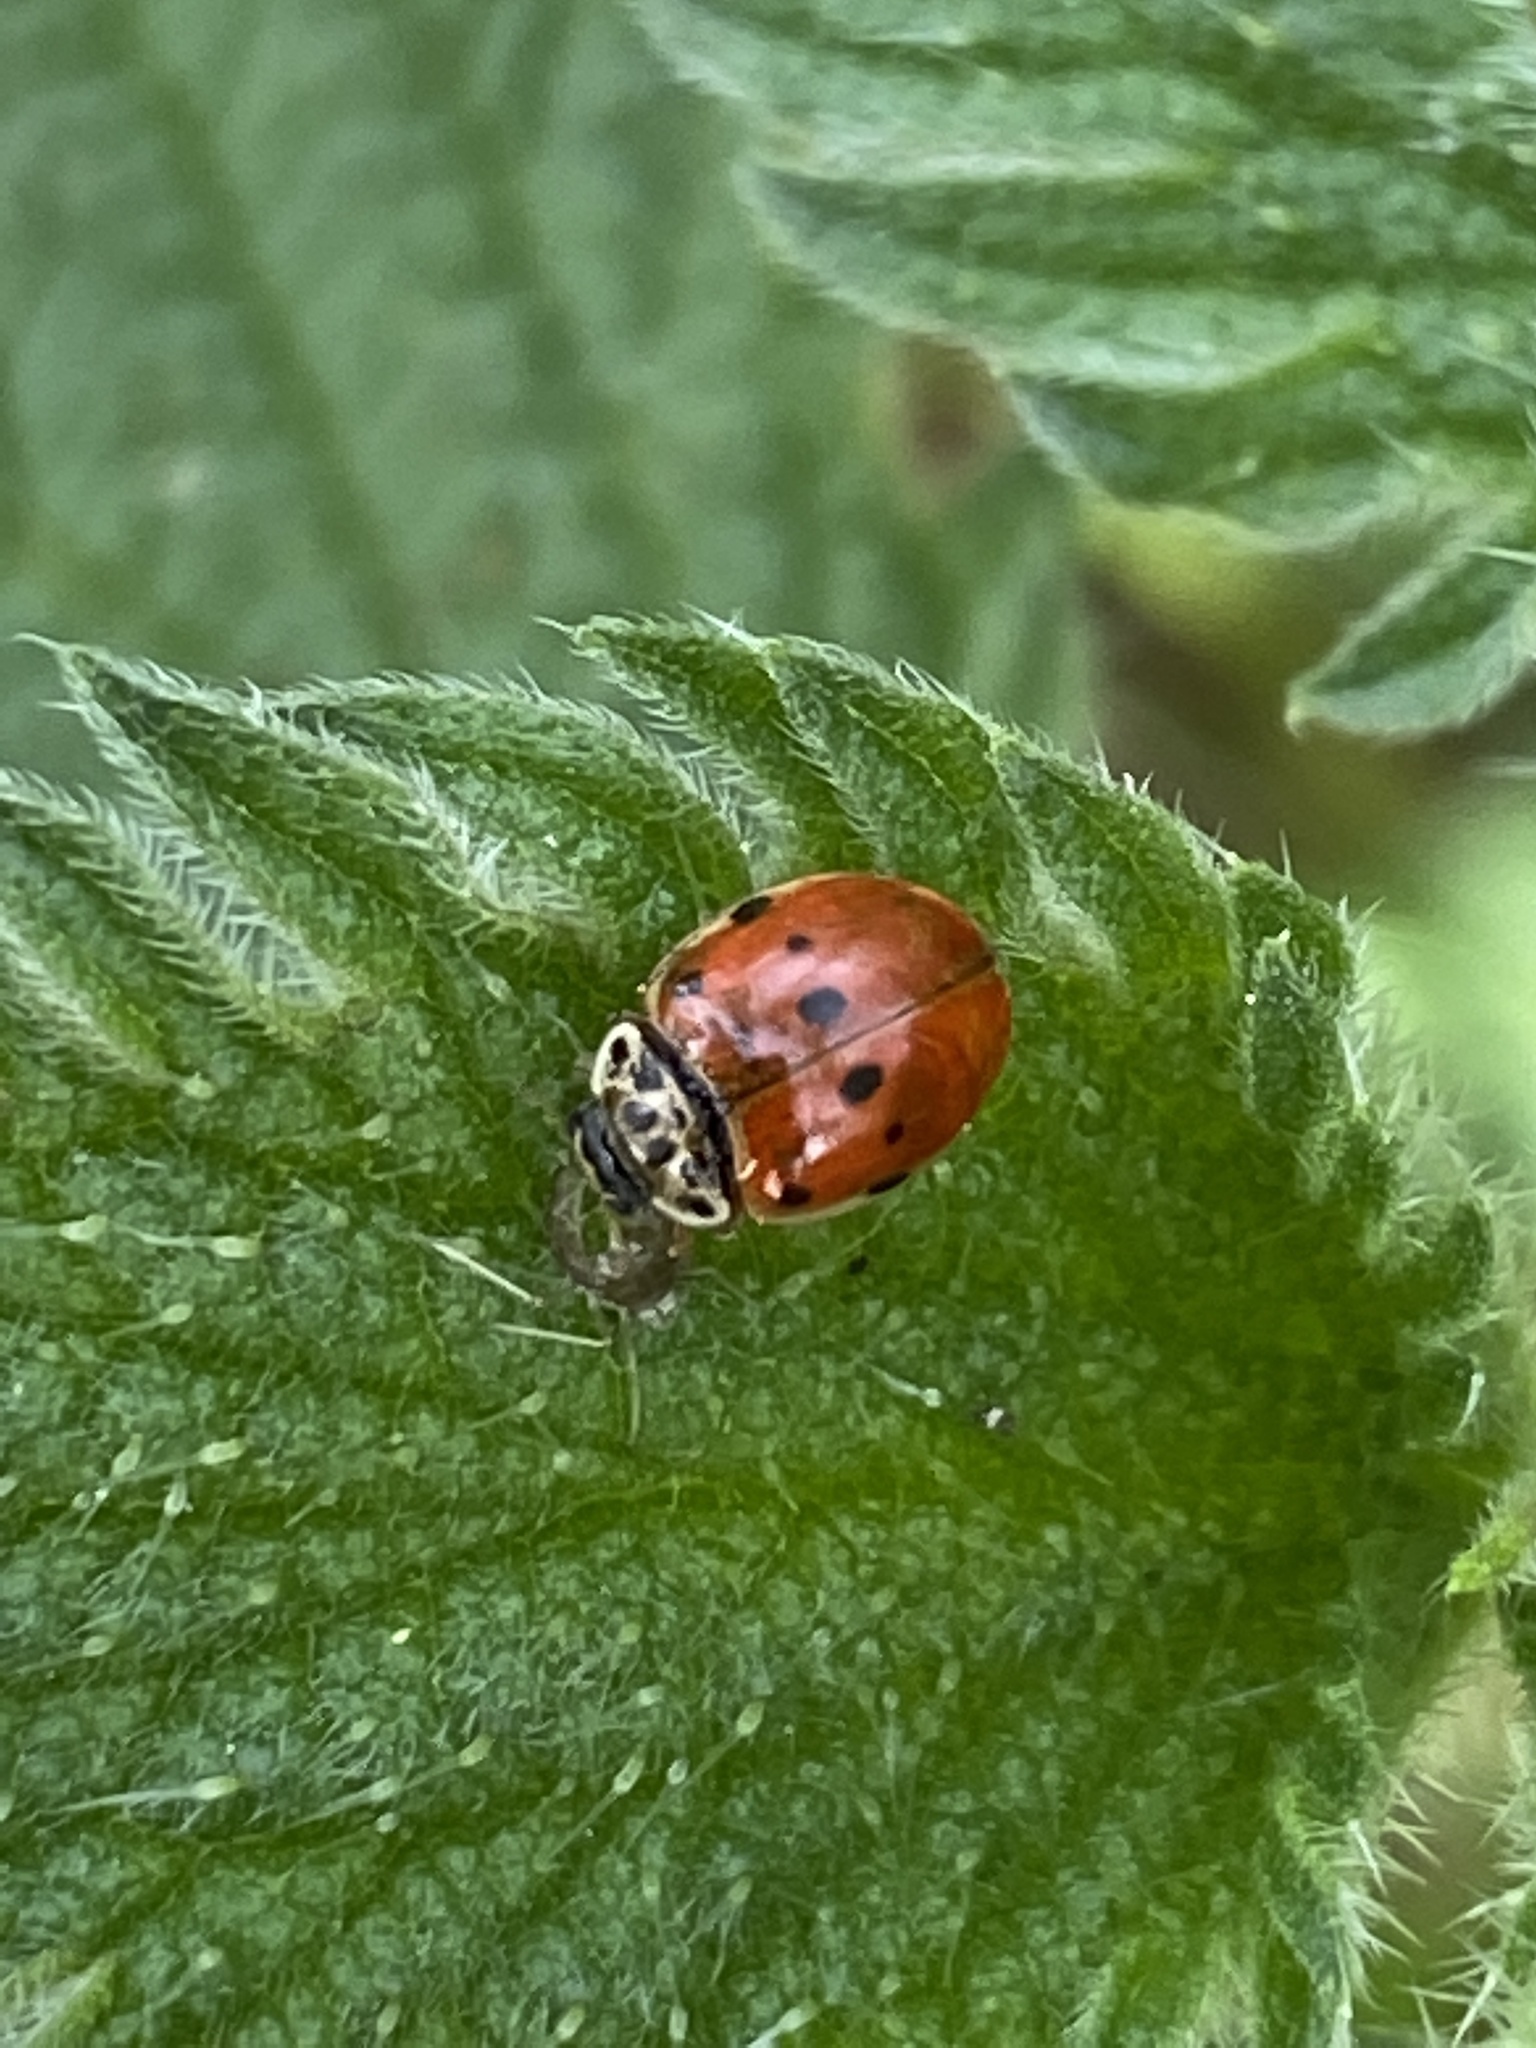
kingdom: Animalia
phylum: Arthropoda
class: Insecta
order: Coleoptera
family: Coccinellidae
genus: Adalia
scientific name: Adalia decempunctata
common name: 10-spot ladybird
